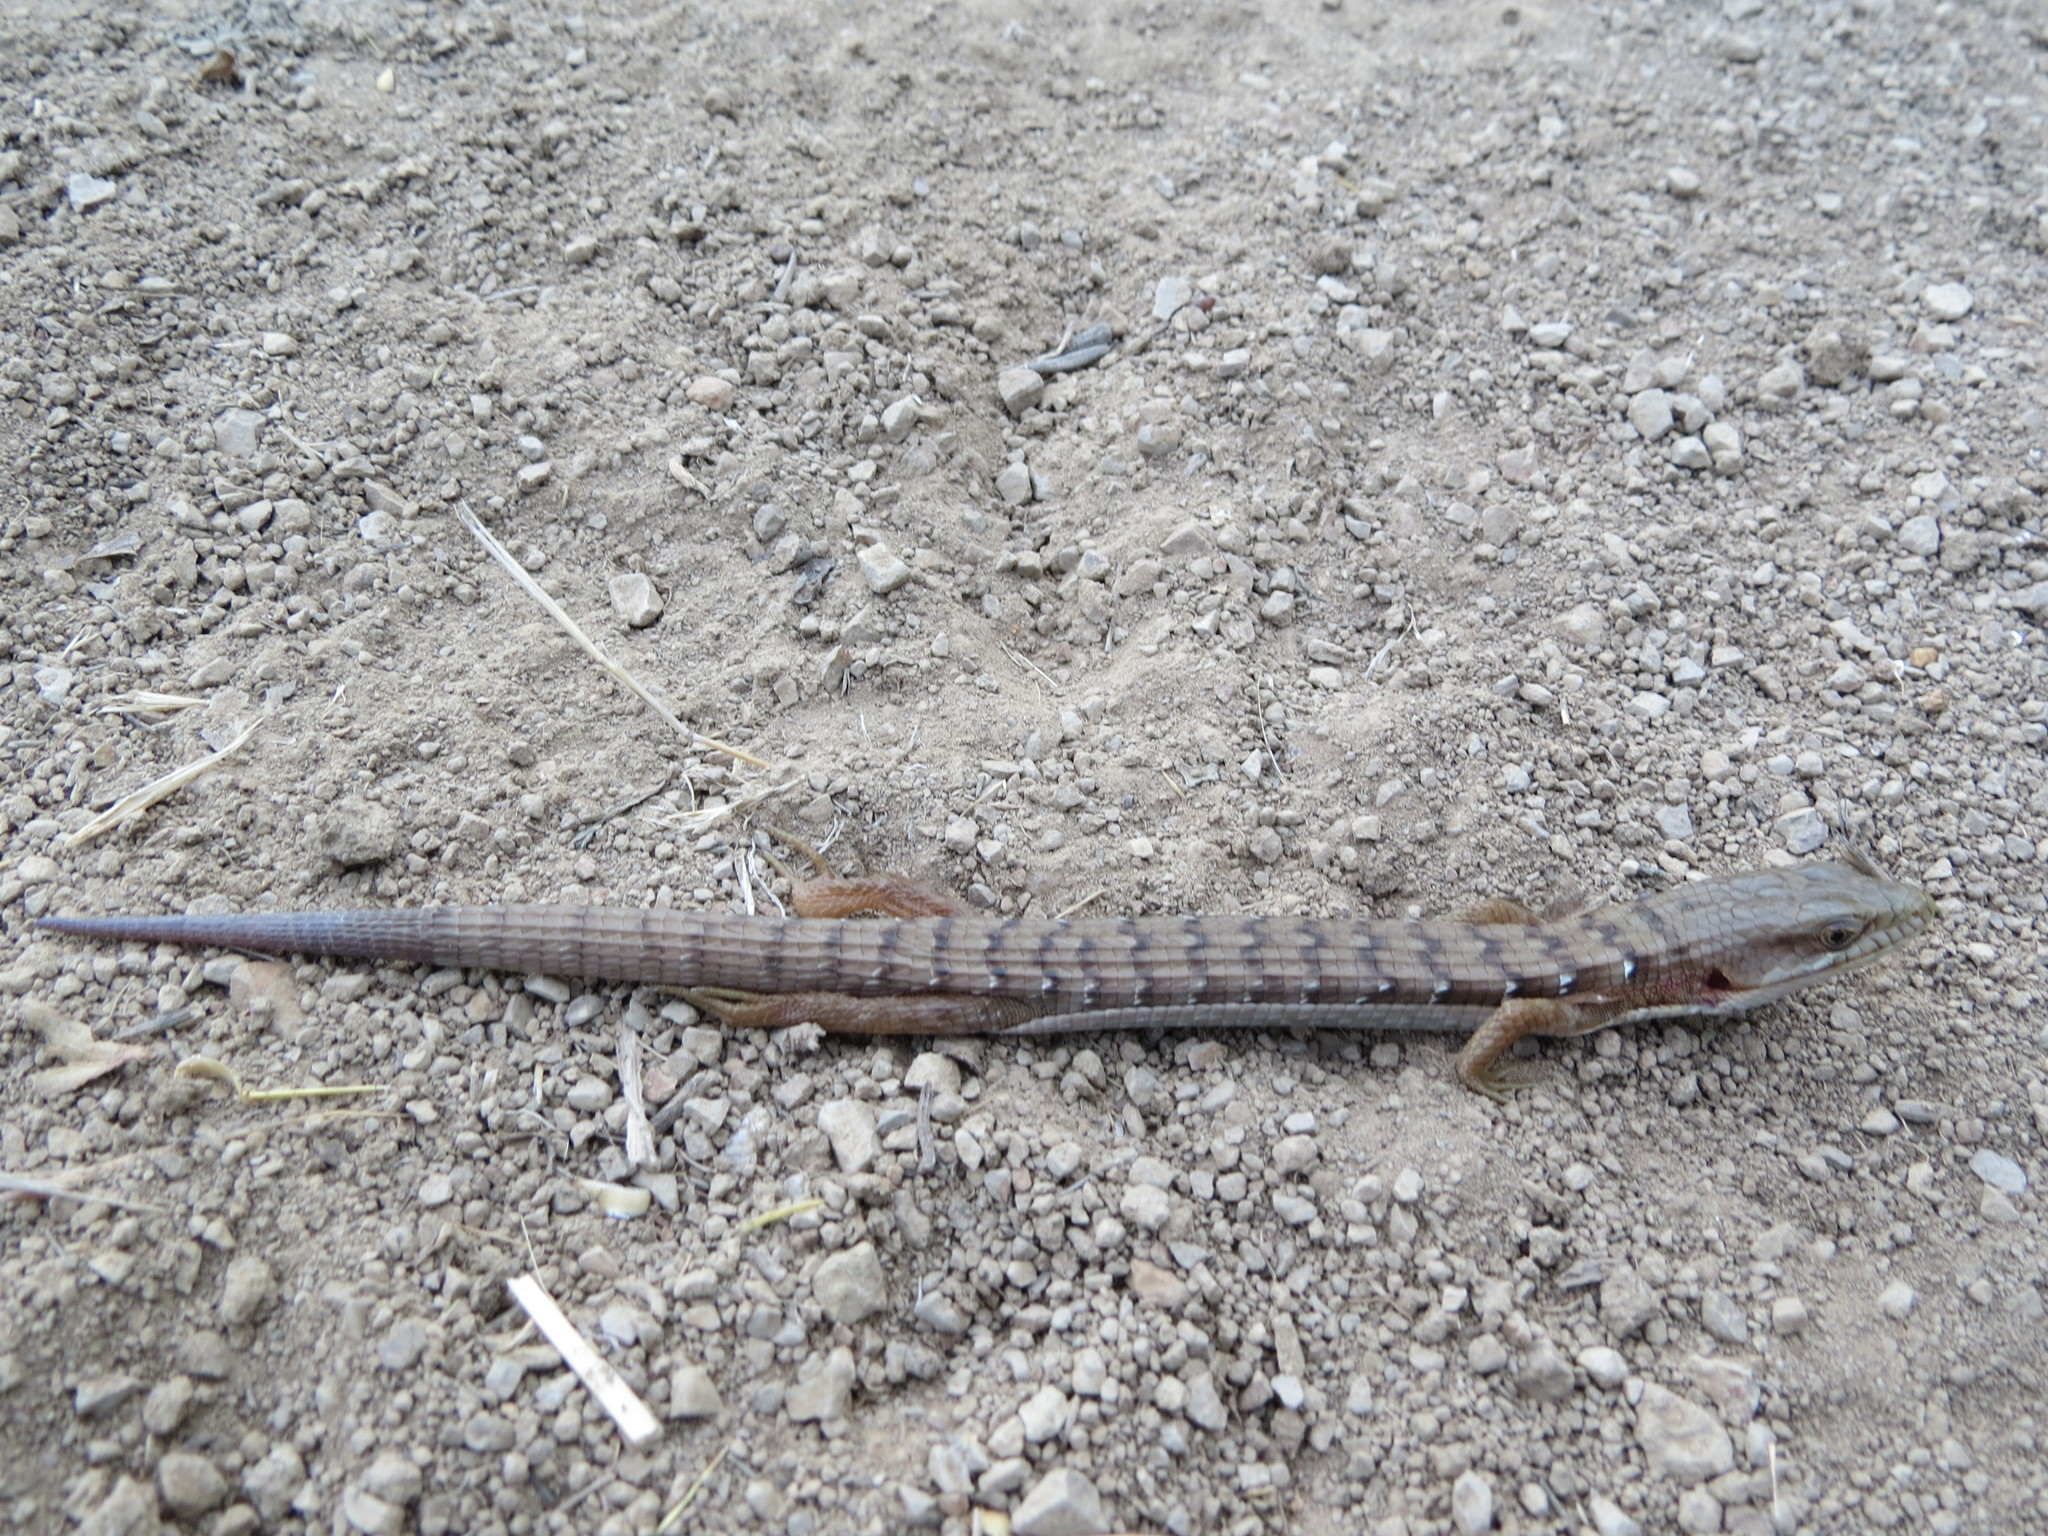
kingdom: Animalia
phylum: Chordata
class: Squamata
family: Anguidae
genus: Elgaria
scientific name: Elgaria multicarinata
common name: Southern alligator lizard
